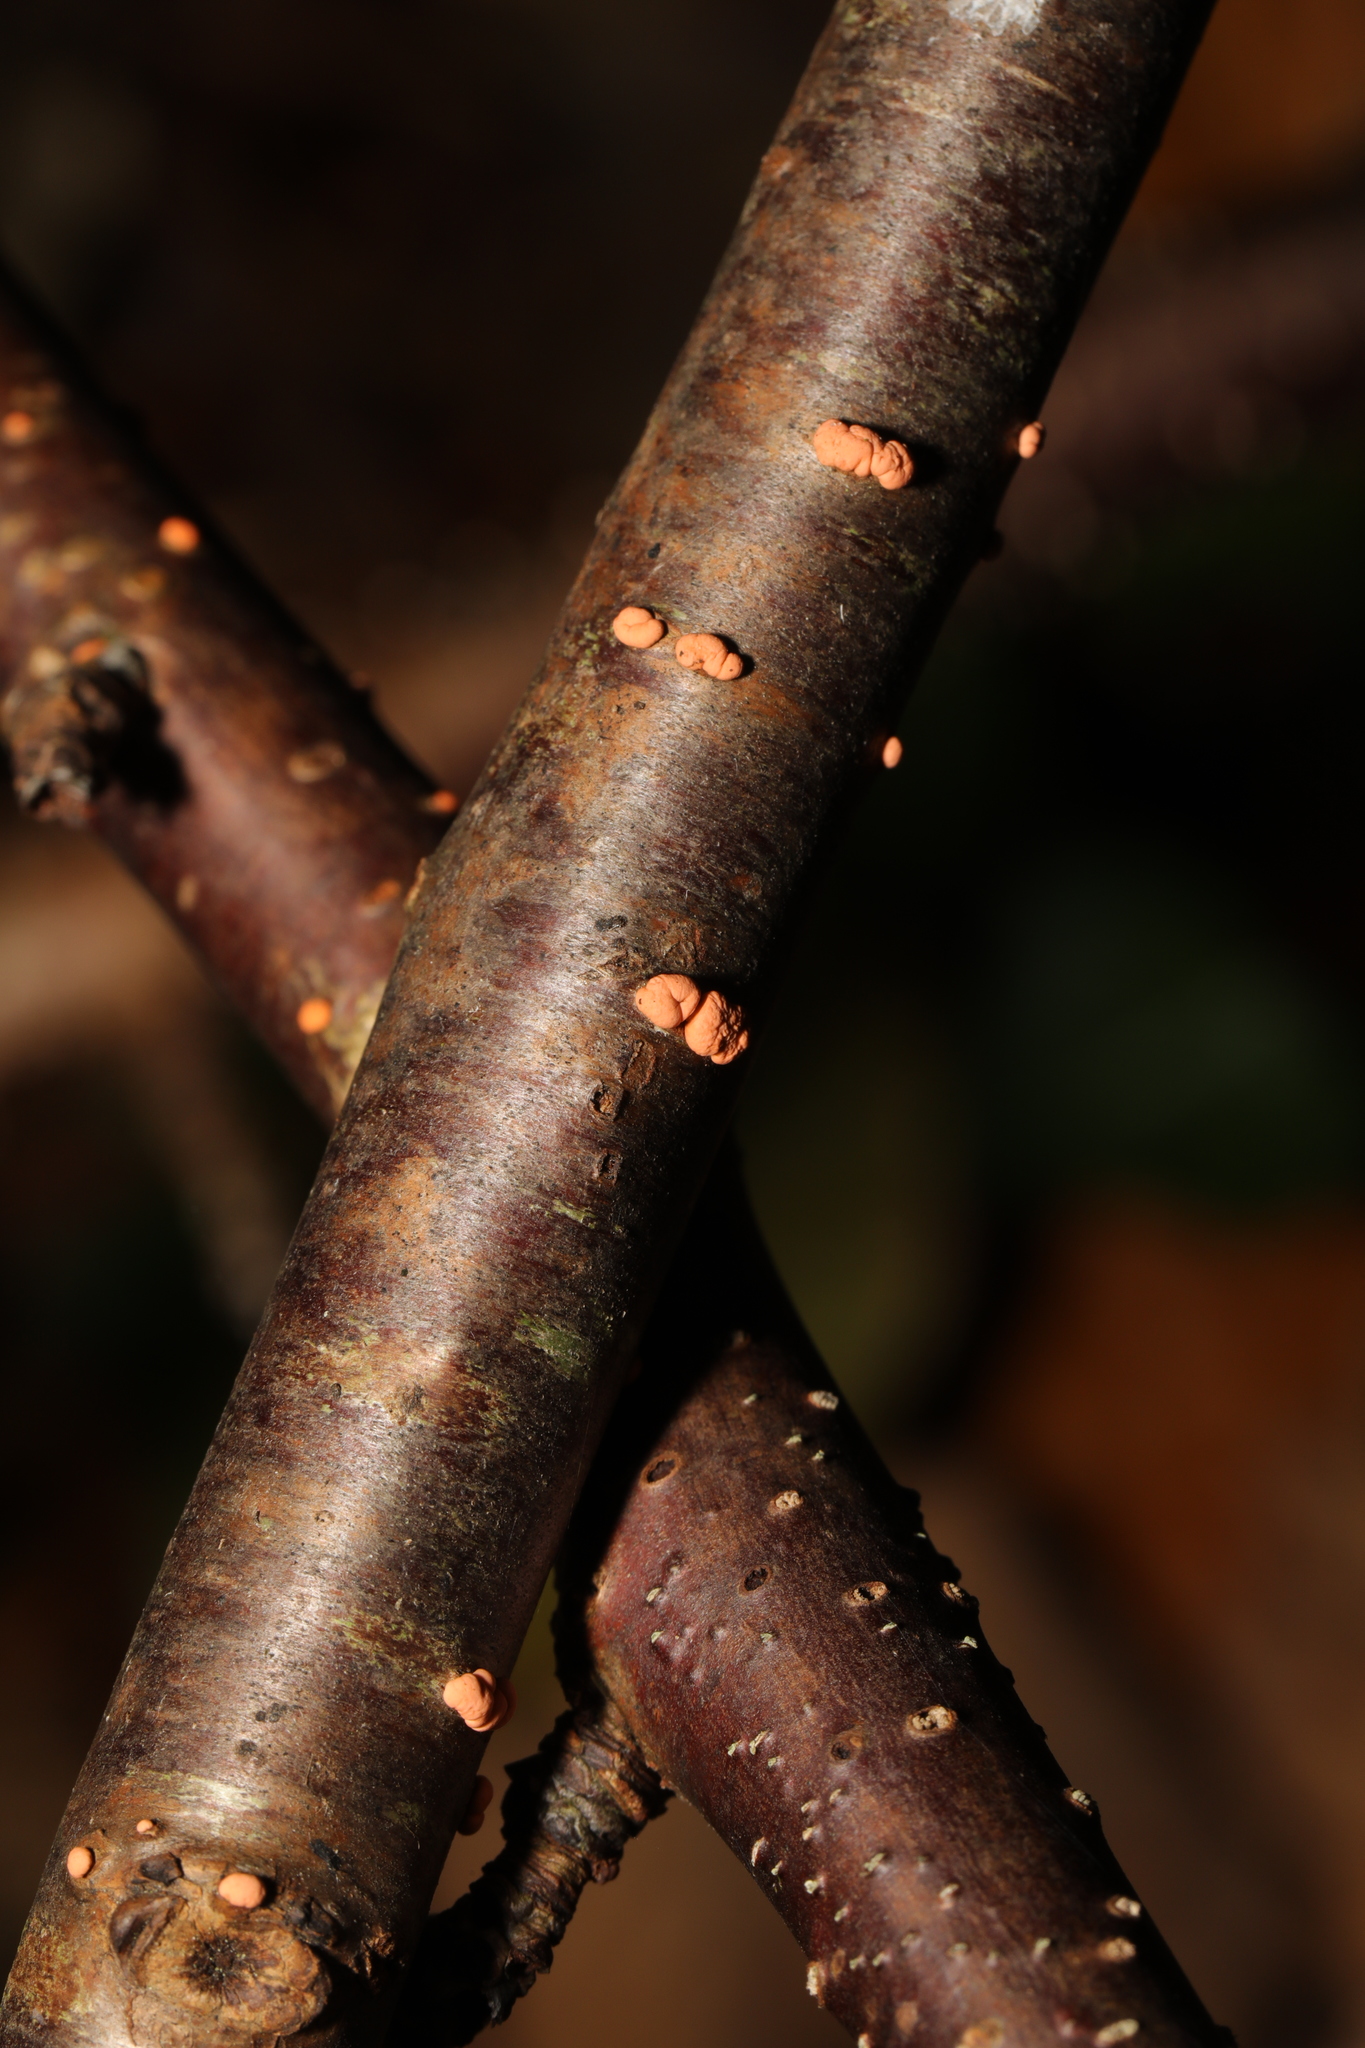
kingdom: Fungi
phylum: Ascomycota
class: Sordariomycetes
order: Hypocreales
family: Nectriaceae
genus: Nectria
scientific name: Nectria cinnabarina
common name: Coral spot
